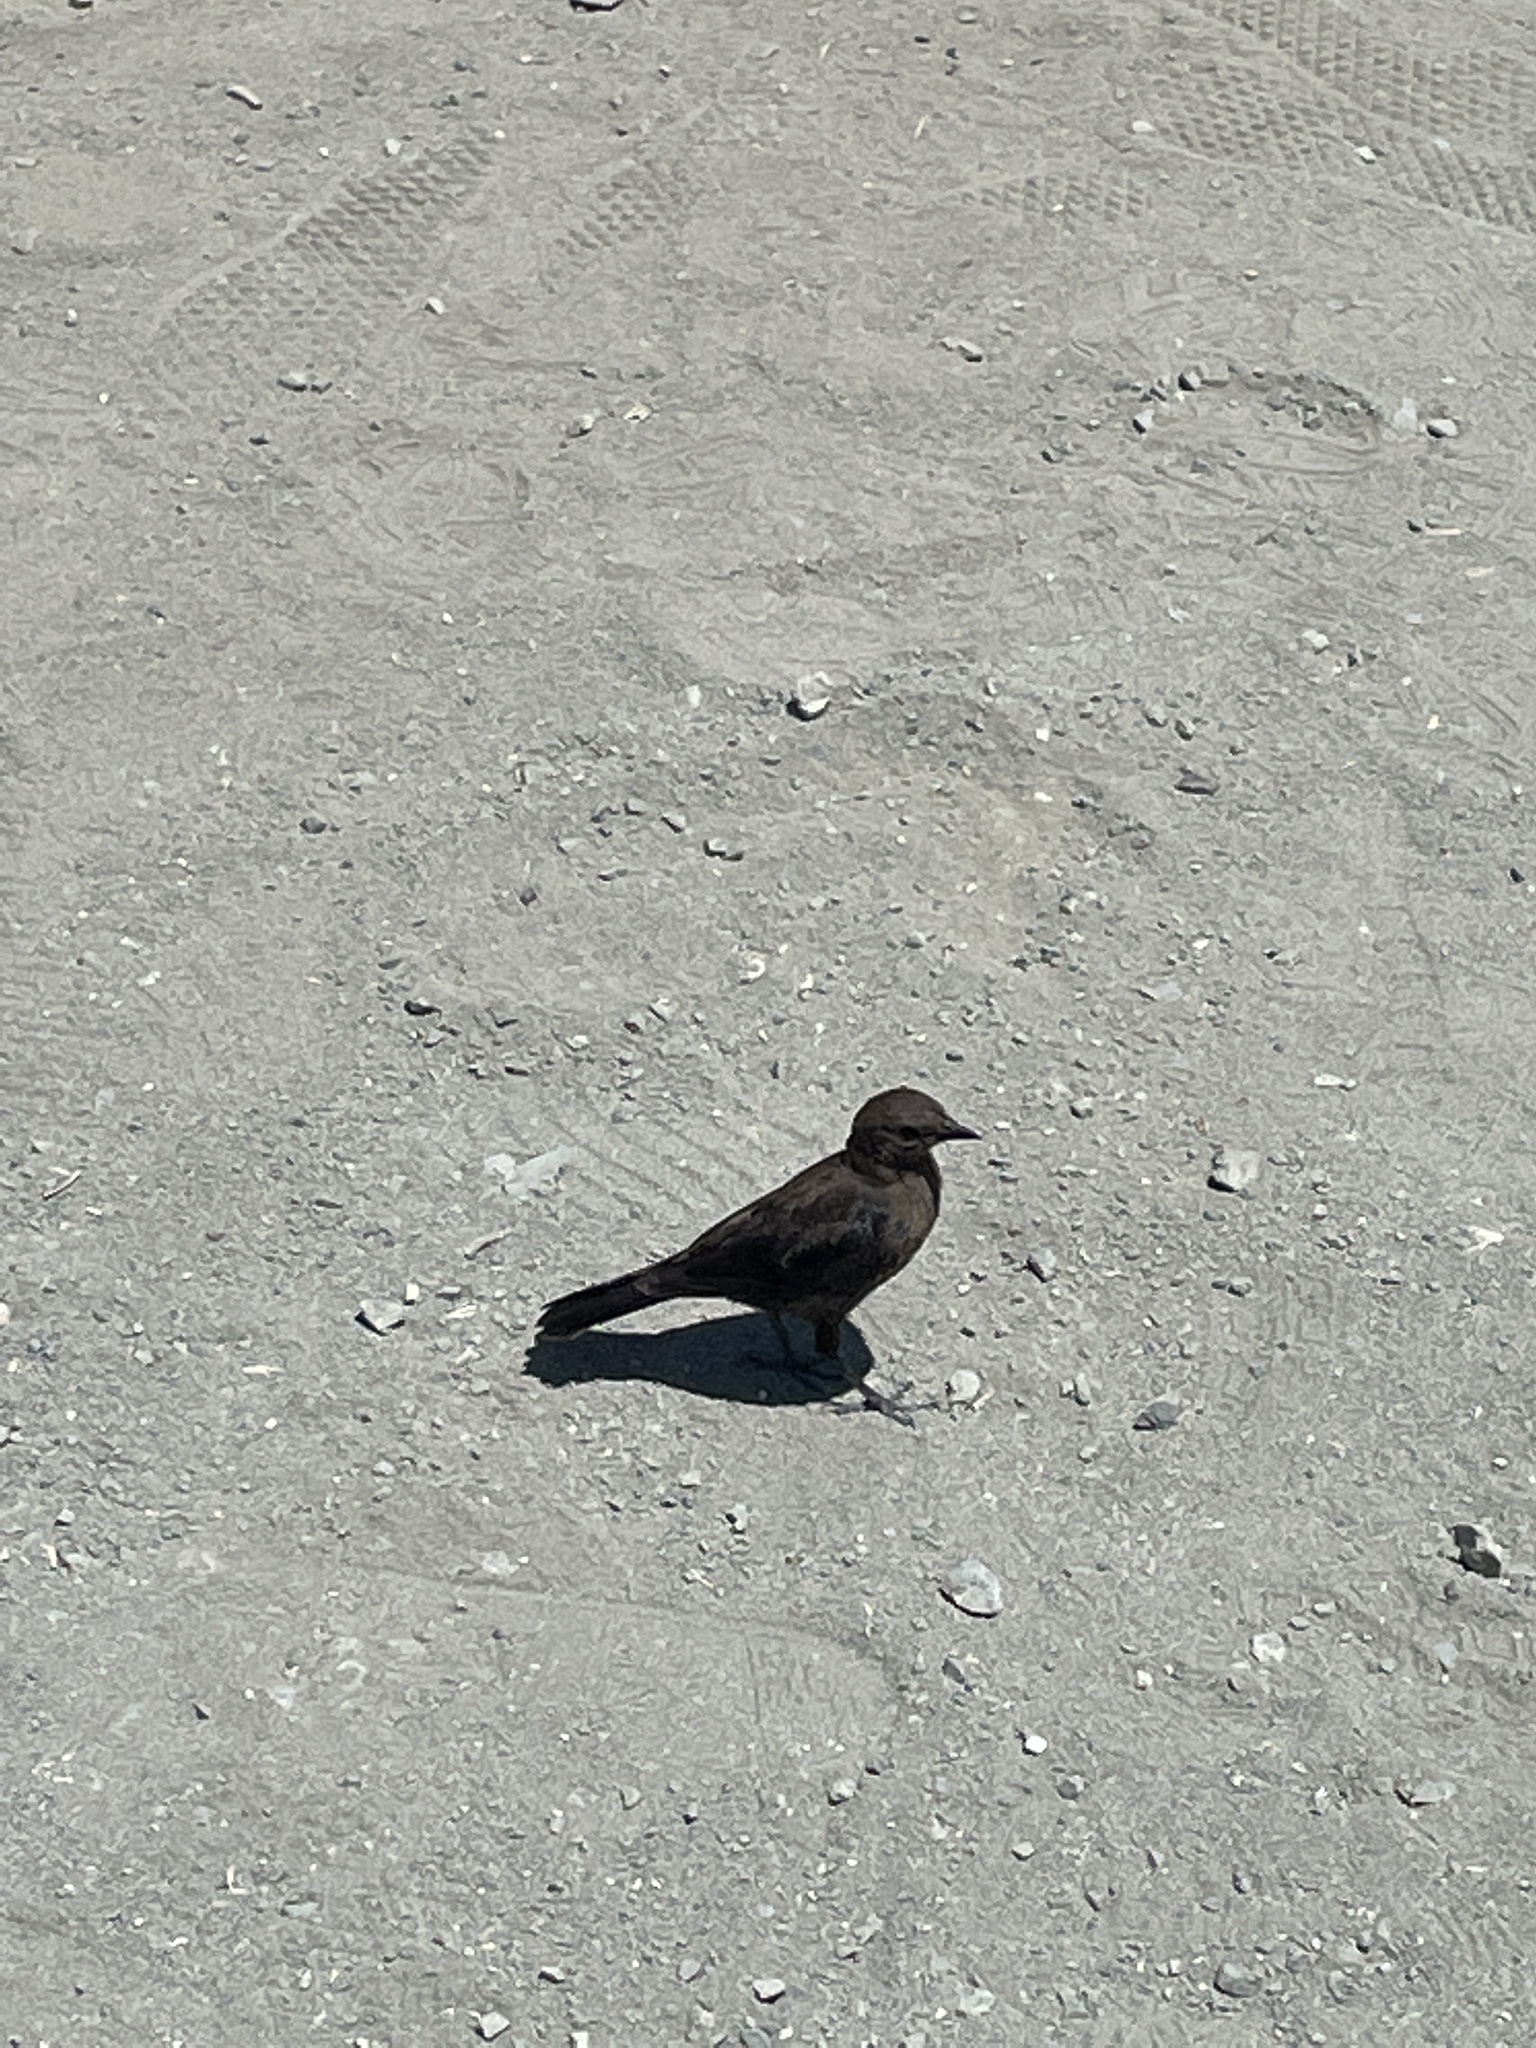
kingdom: Animalia
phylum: Chordata
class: Aves
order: Passeriformes
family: Icteridae
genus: Euphagus
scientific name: Euphagus cyanocephalus
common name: Brewer's blackbird
